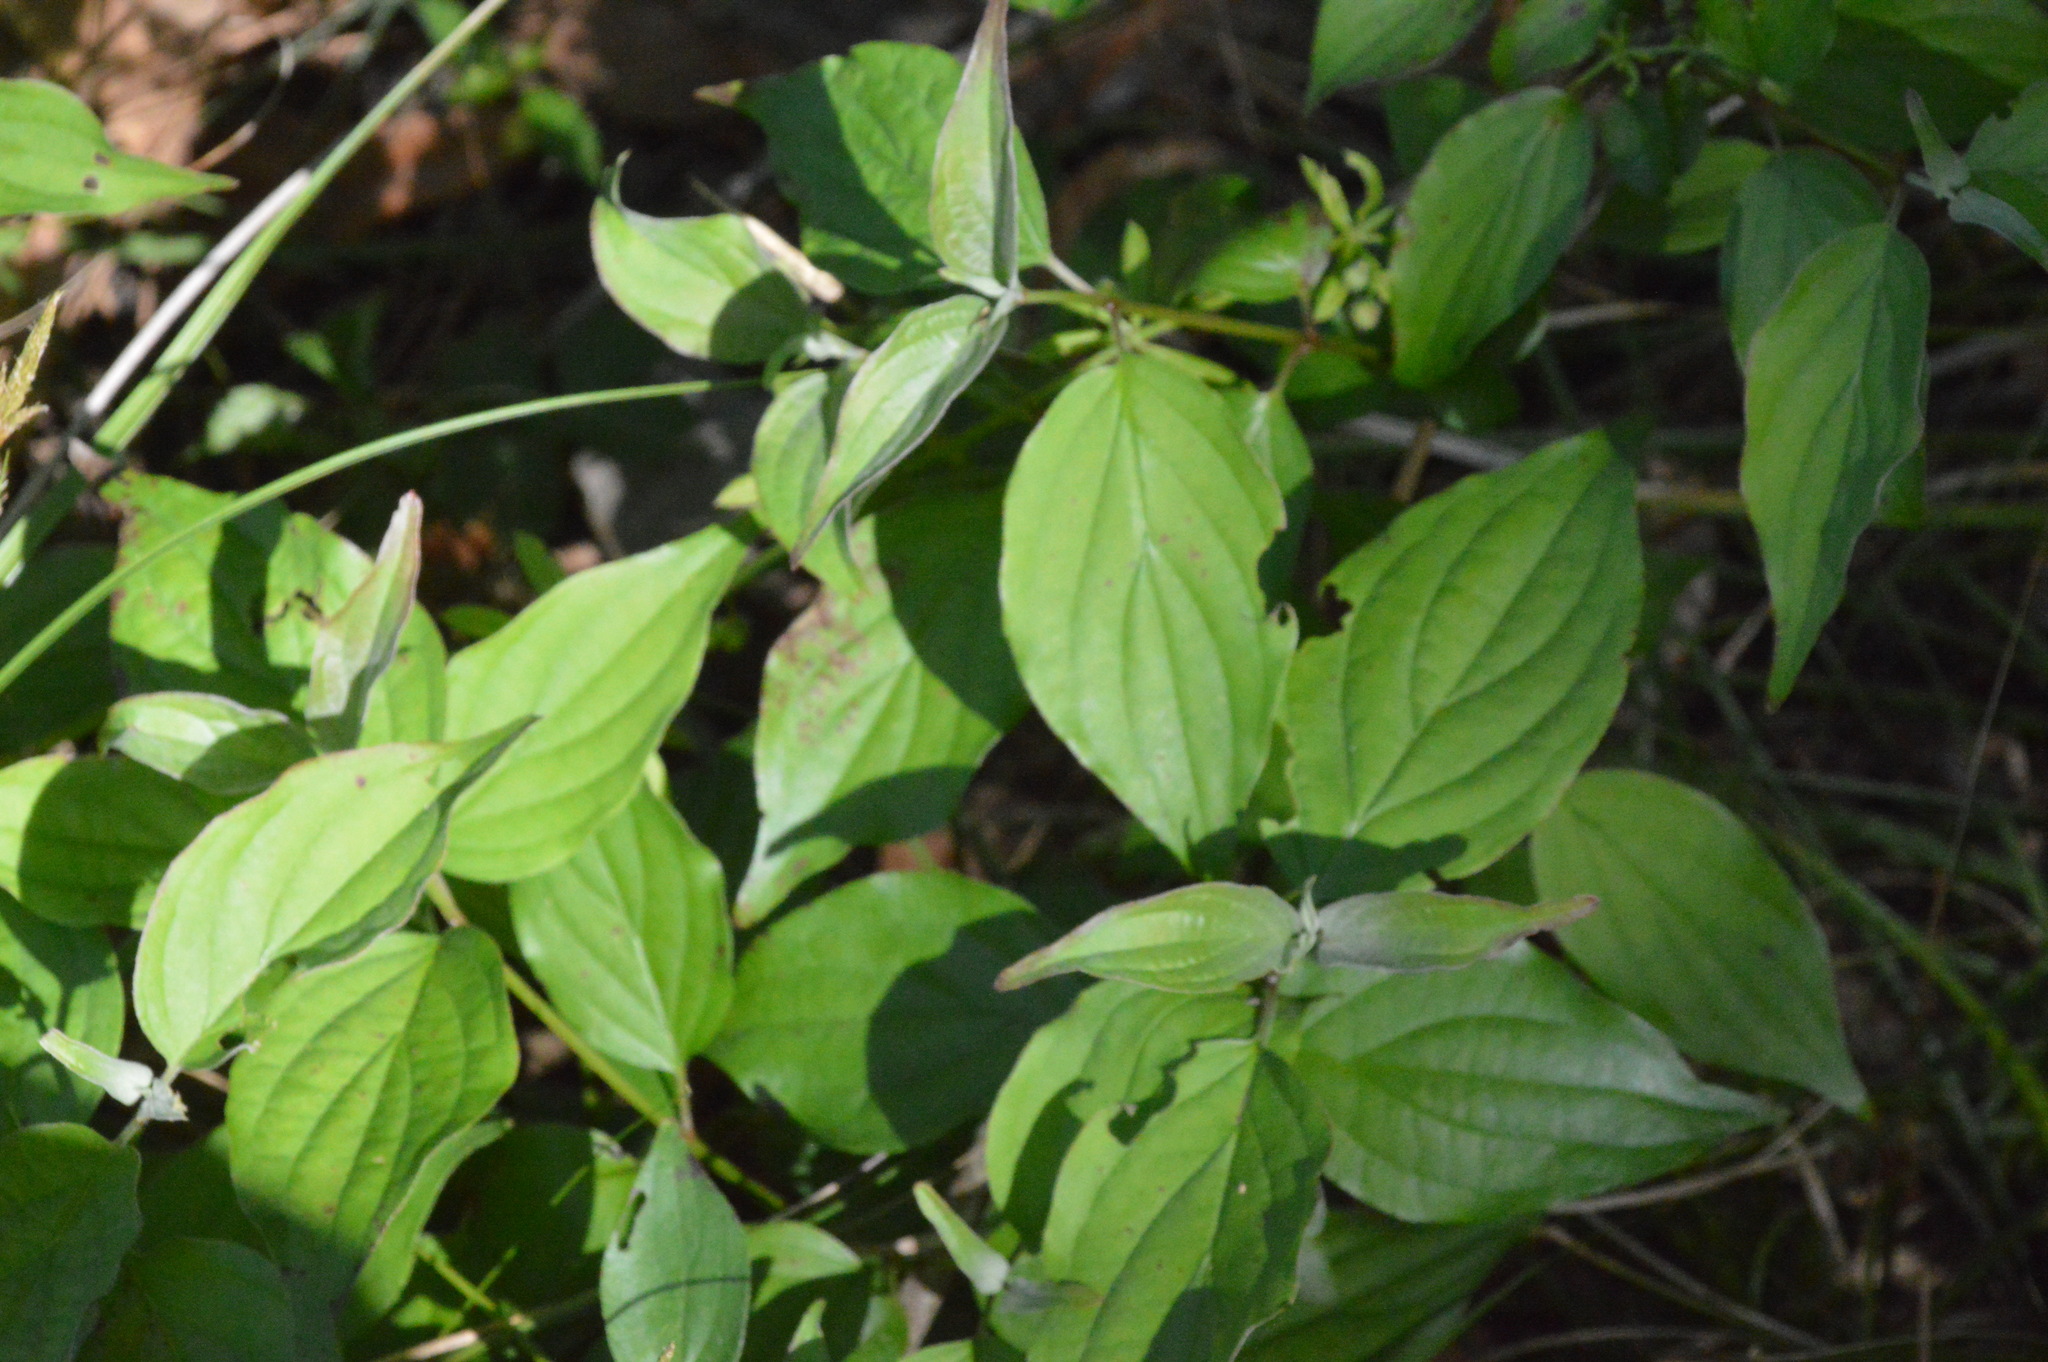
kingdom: Plantae
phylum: Tracheophyta
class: Magnoliopsida
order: Cornales
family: Cornaceae
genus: Cornus
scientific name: Cornus drummondii
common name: Rough-leaf dogwood
